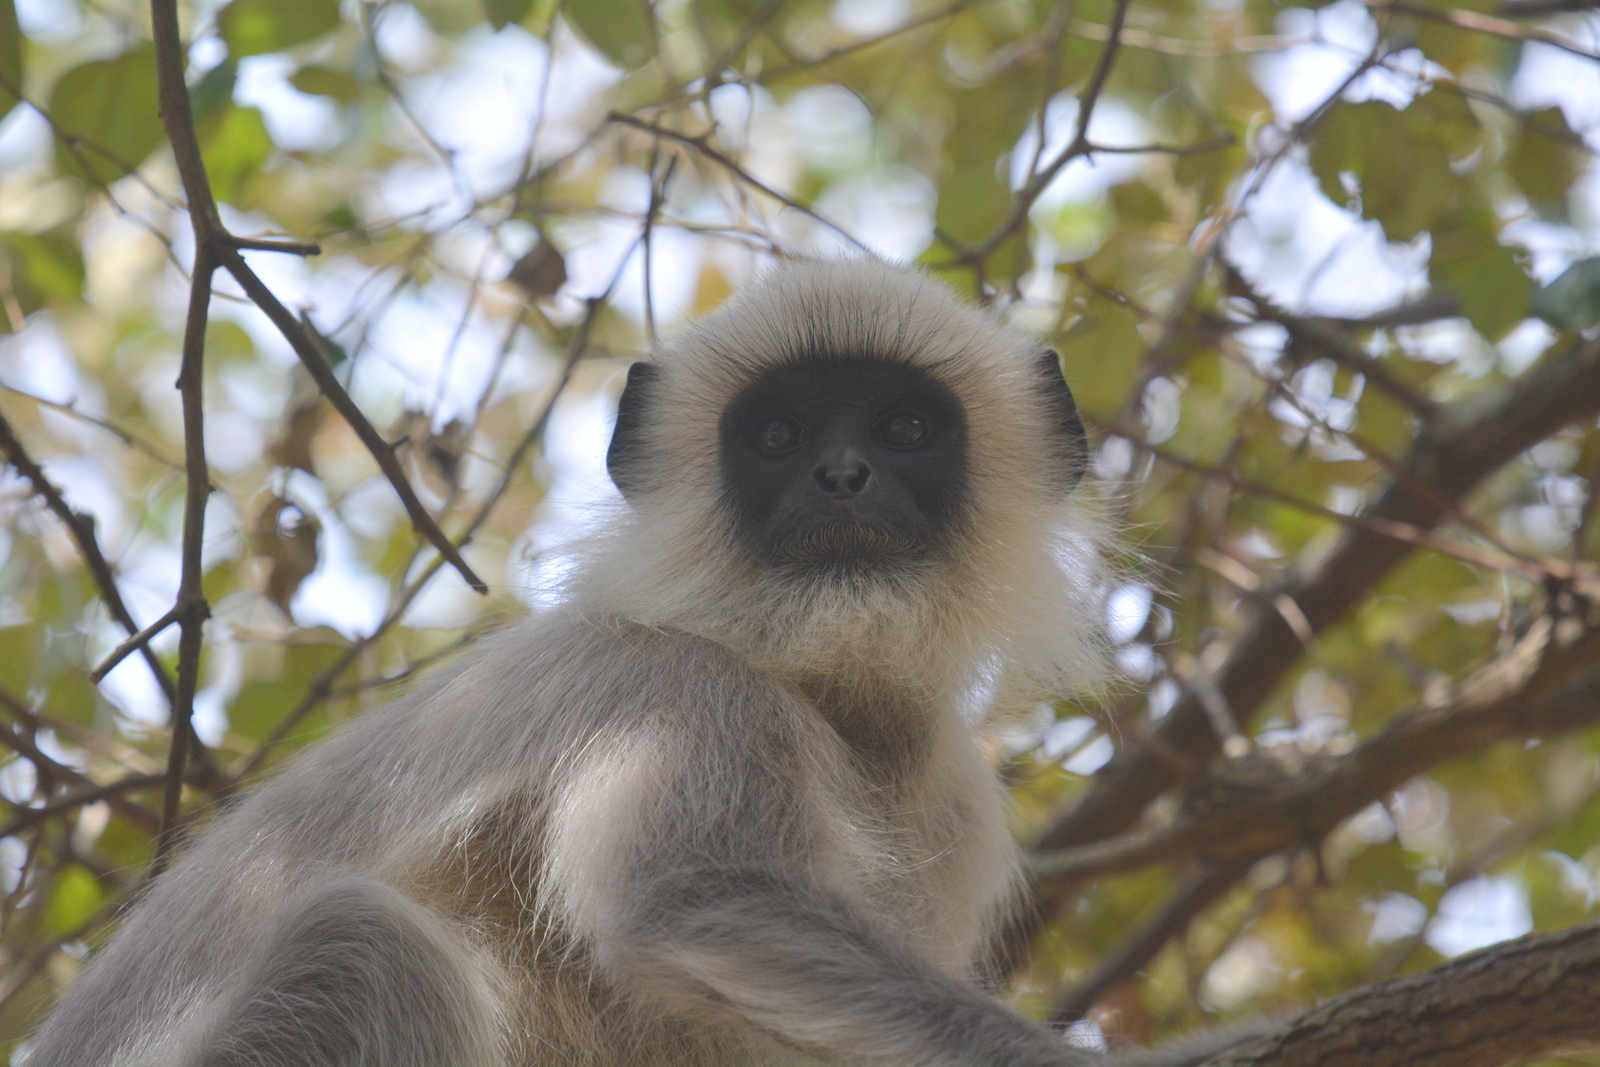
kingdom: Animalia
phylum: Chordata
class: Mammalia
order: Primates
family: Cercopithecidae
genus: Semnopithecus
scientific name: Semnopithecus priam
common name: Tufted gray langur
